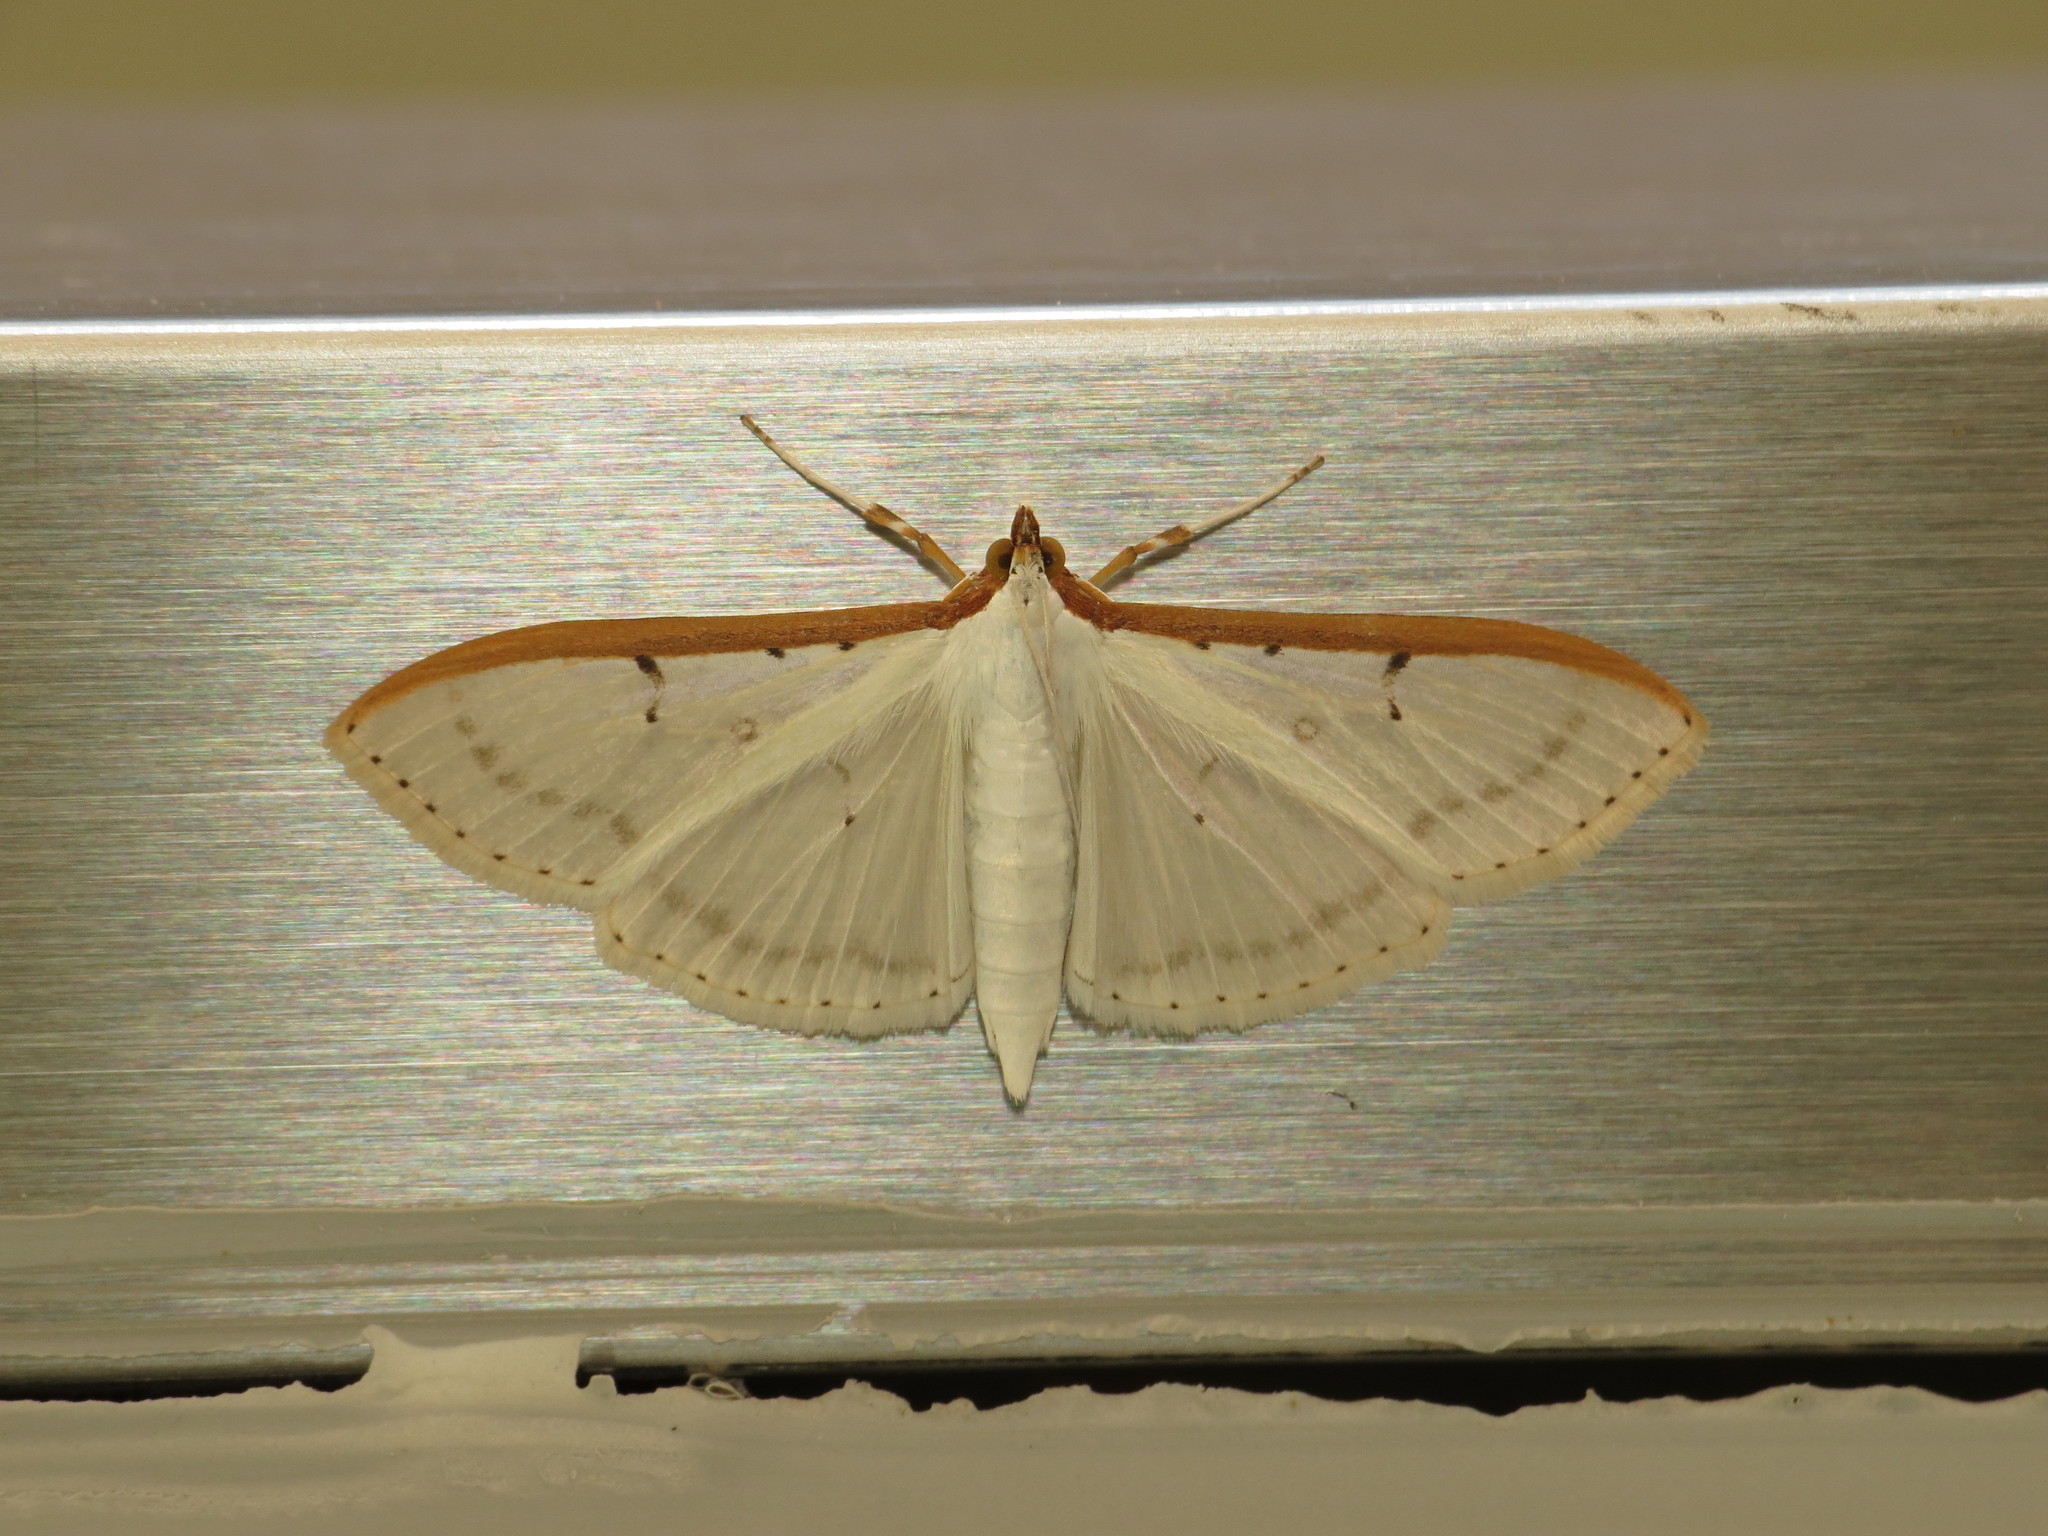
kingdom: Animalia
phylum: Arthropoda
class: Insecta
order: Lepidoptera
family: Crambidae
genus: Palpita
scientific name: Palpita nigropunctalis
